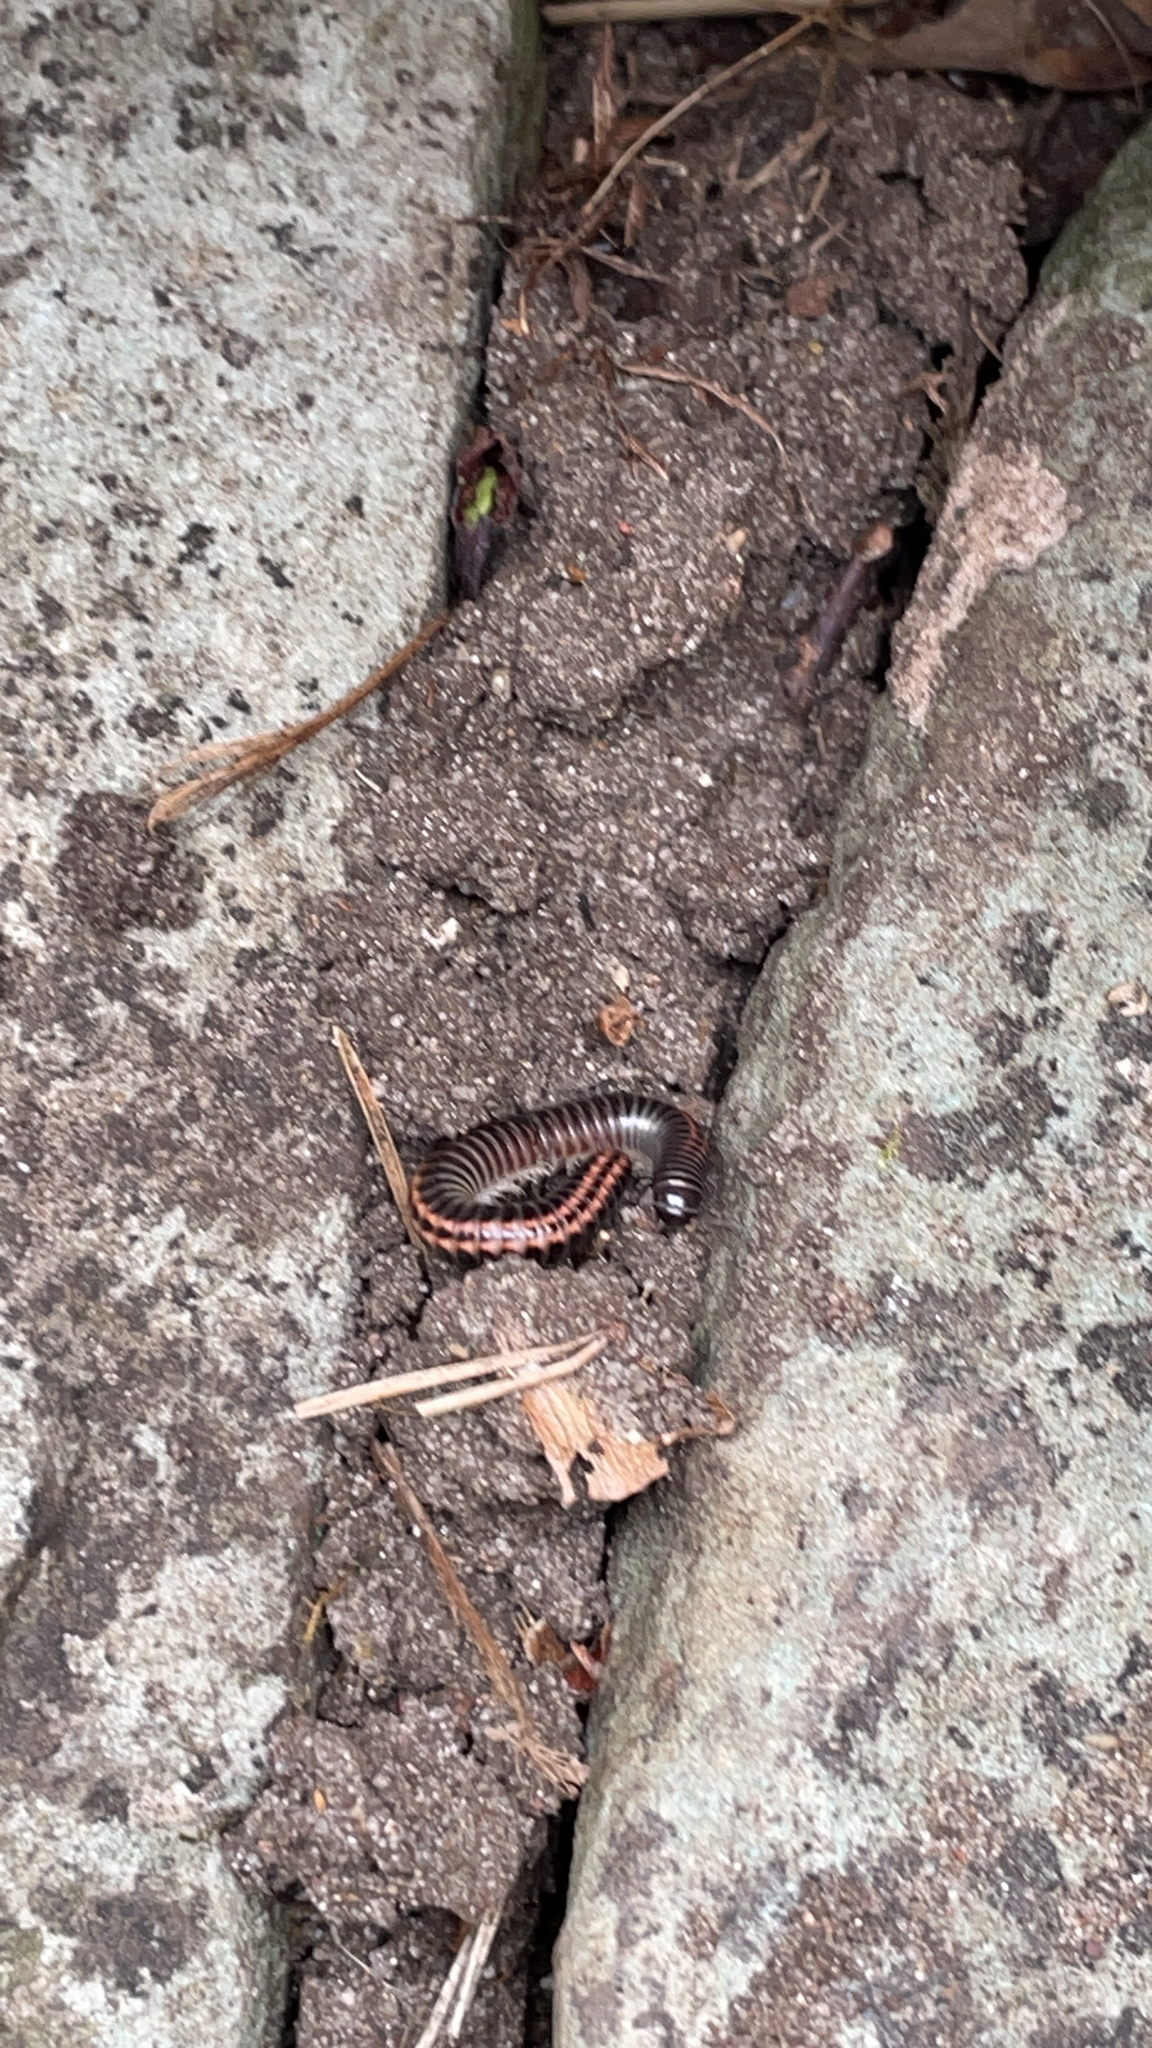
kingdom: Animalia
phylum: Arthropoda
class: Diplopoda
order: Julida
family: Julidae
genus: Ommatoiulus
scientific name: Ommatoiulus sabulosus
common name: Striped millipede
